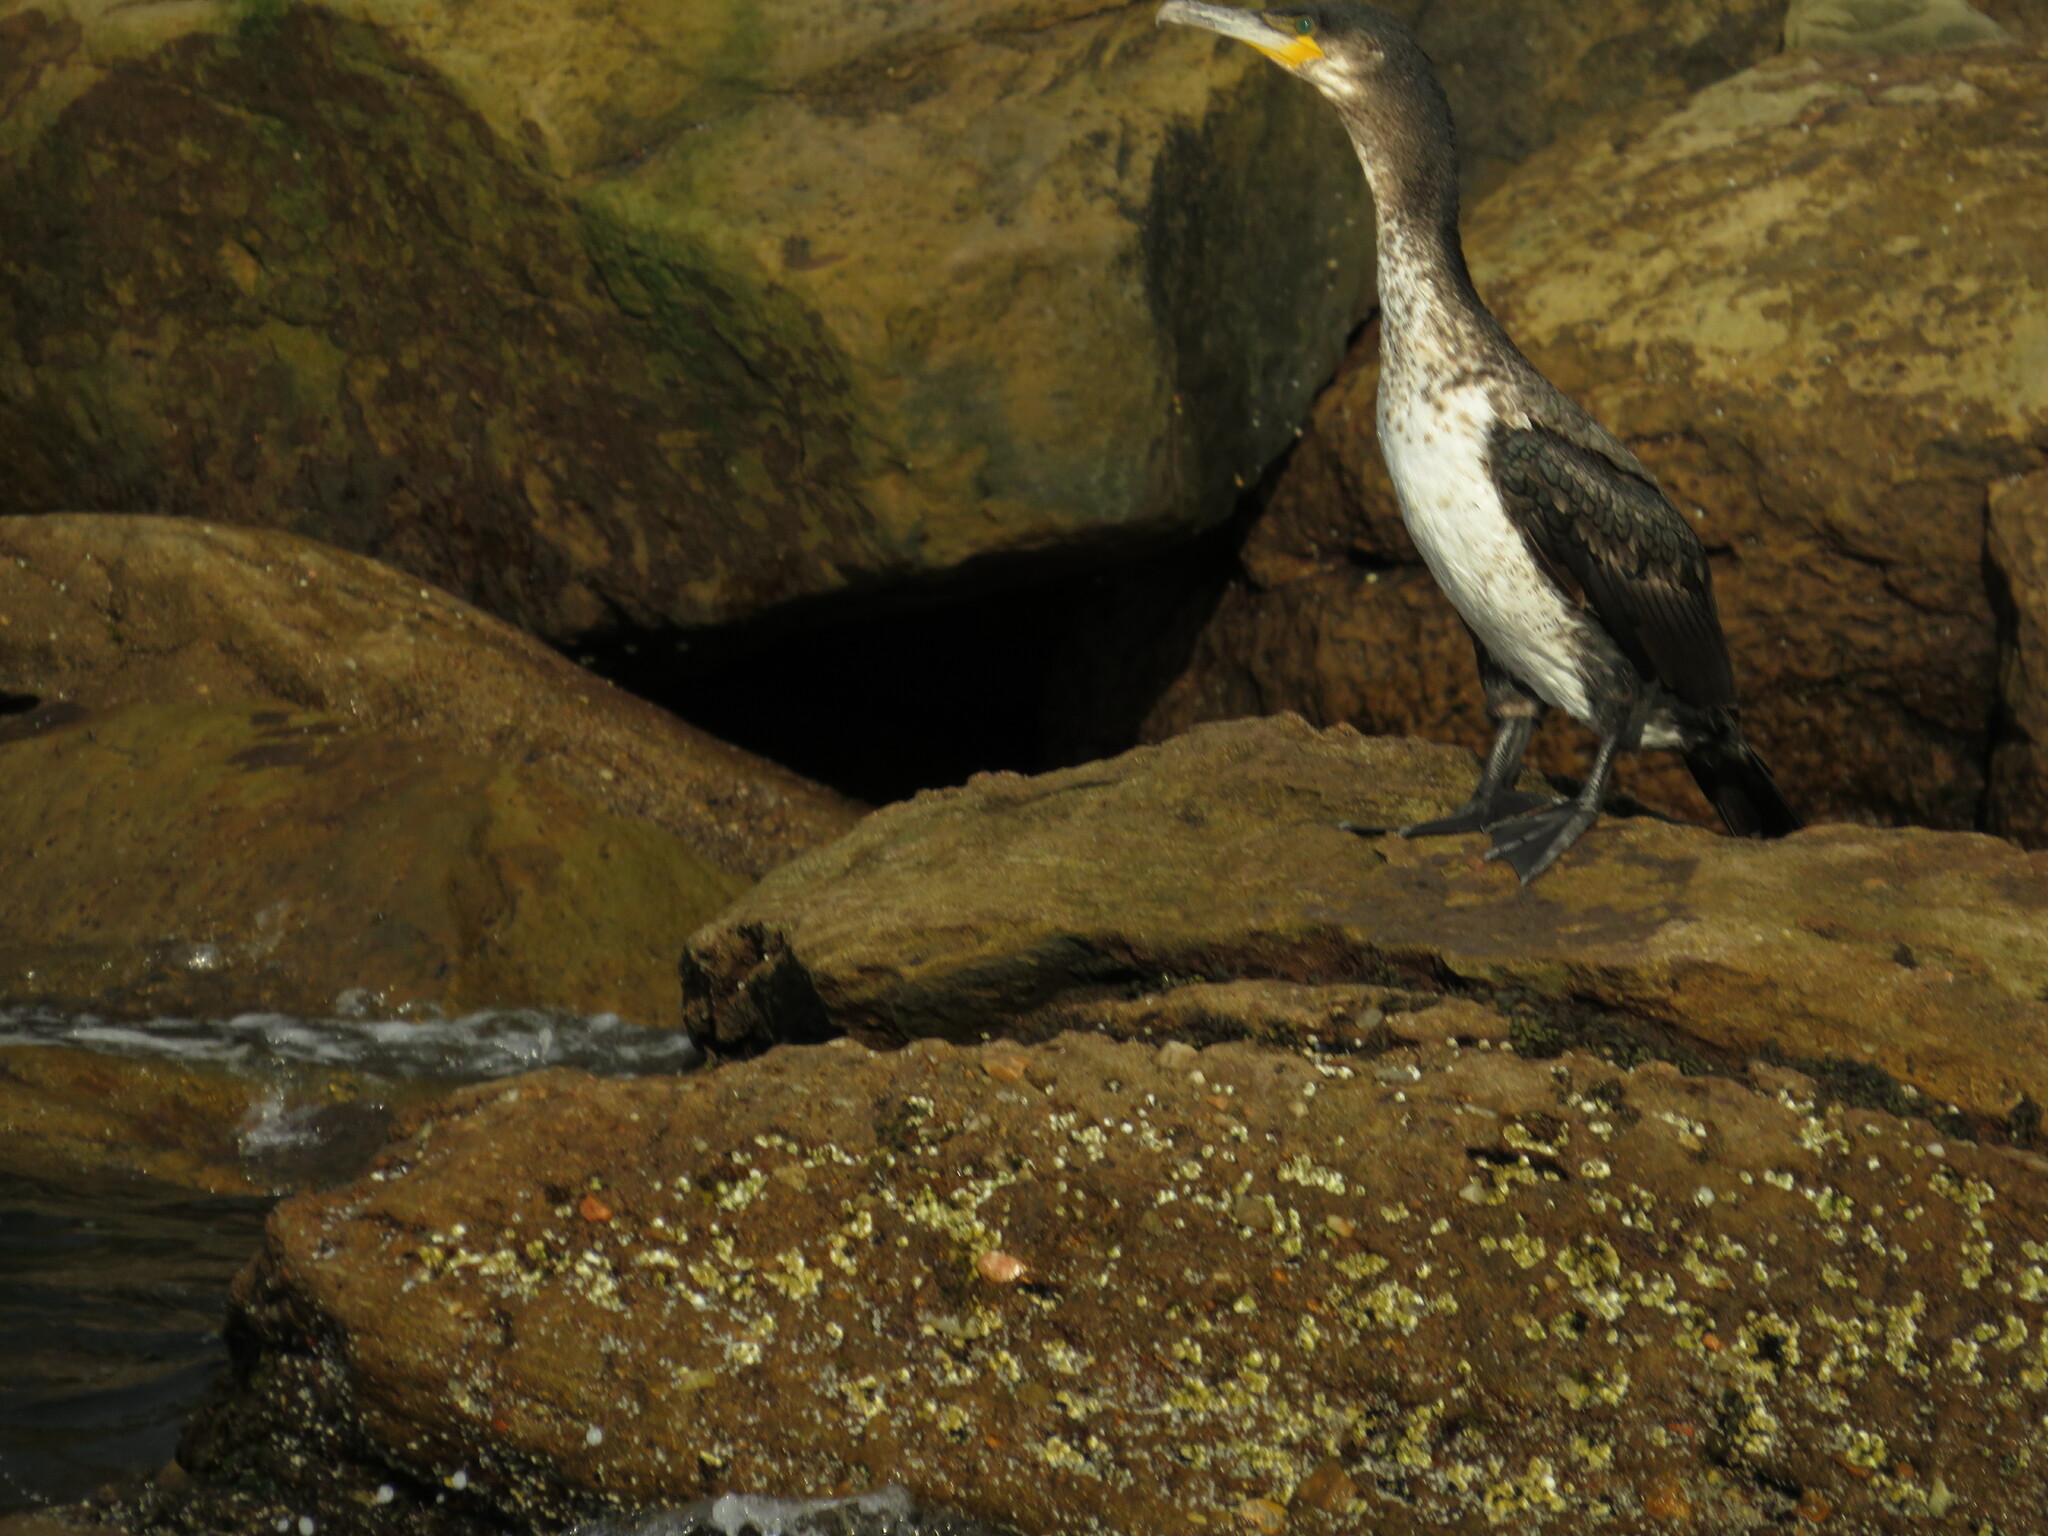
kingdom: Animalia
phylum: Chordata
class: Aves
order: Suliformes
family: Phalacrocoracidae
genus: Phalacrocorax
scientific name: Phalacrocorax carbo
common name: Great cormorant
